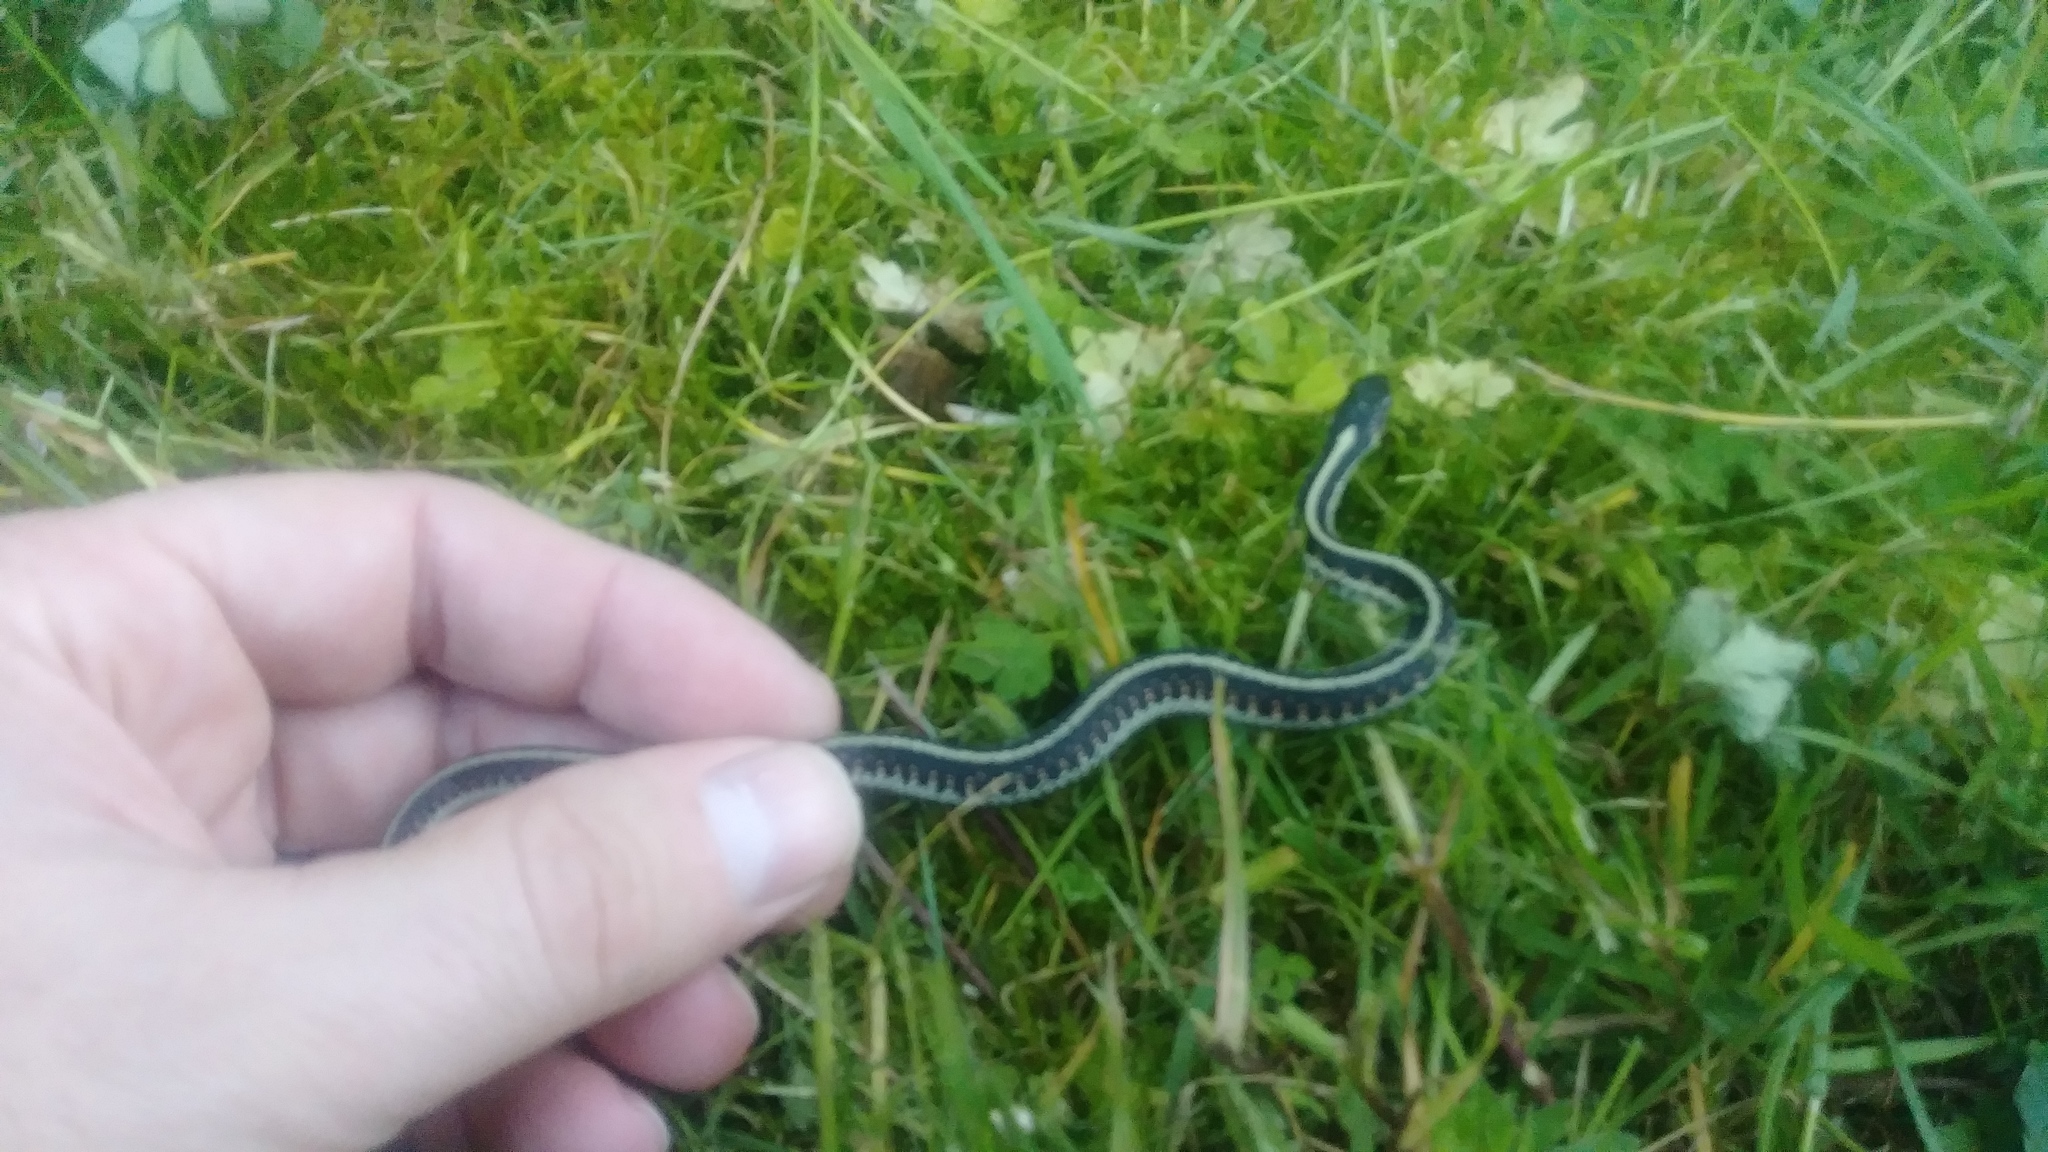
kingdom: Animalia
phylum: Chordata
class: Squamata
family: Colubridae
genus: Thamnophis
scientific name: Thamnophis
